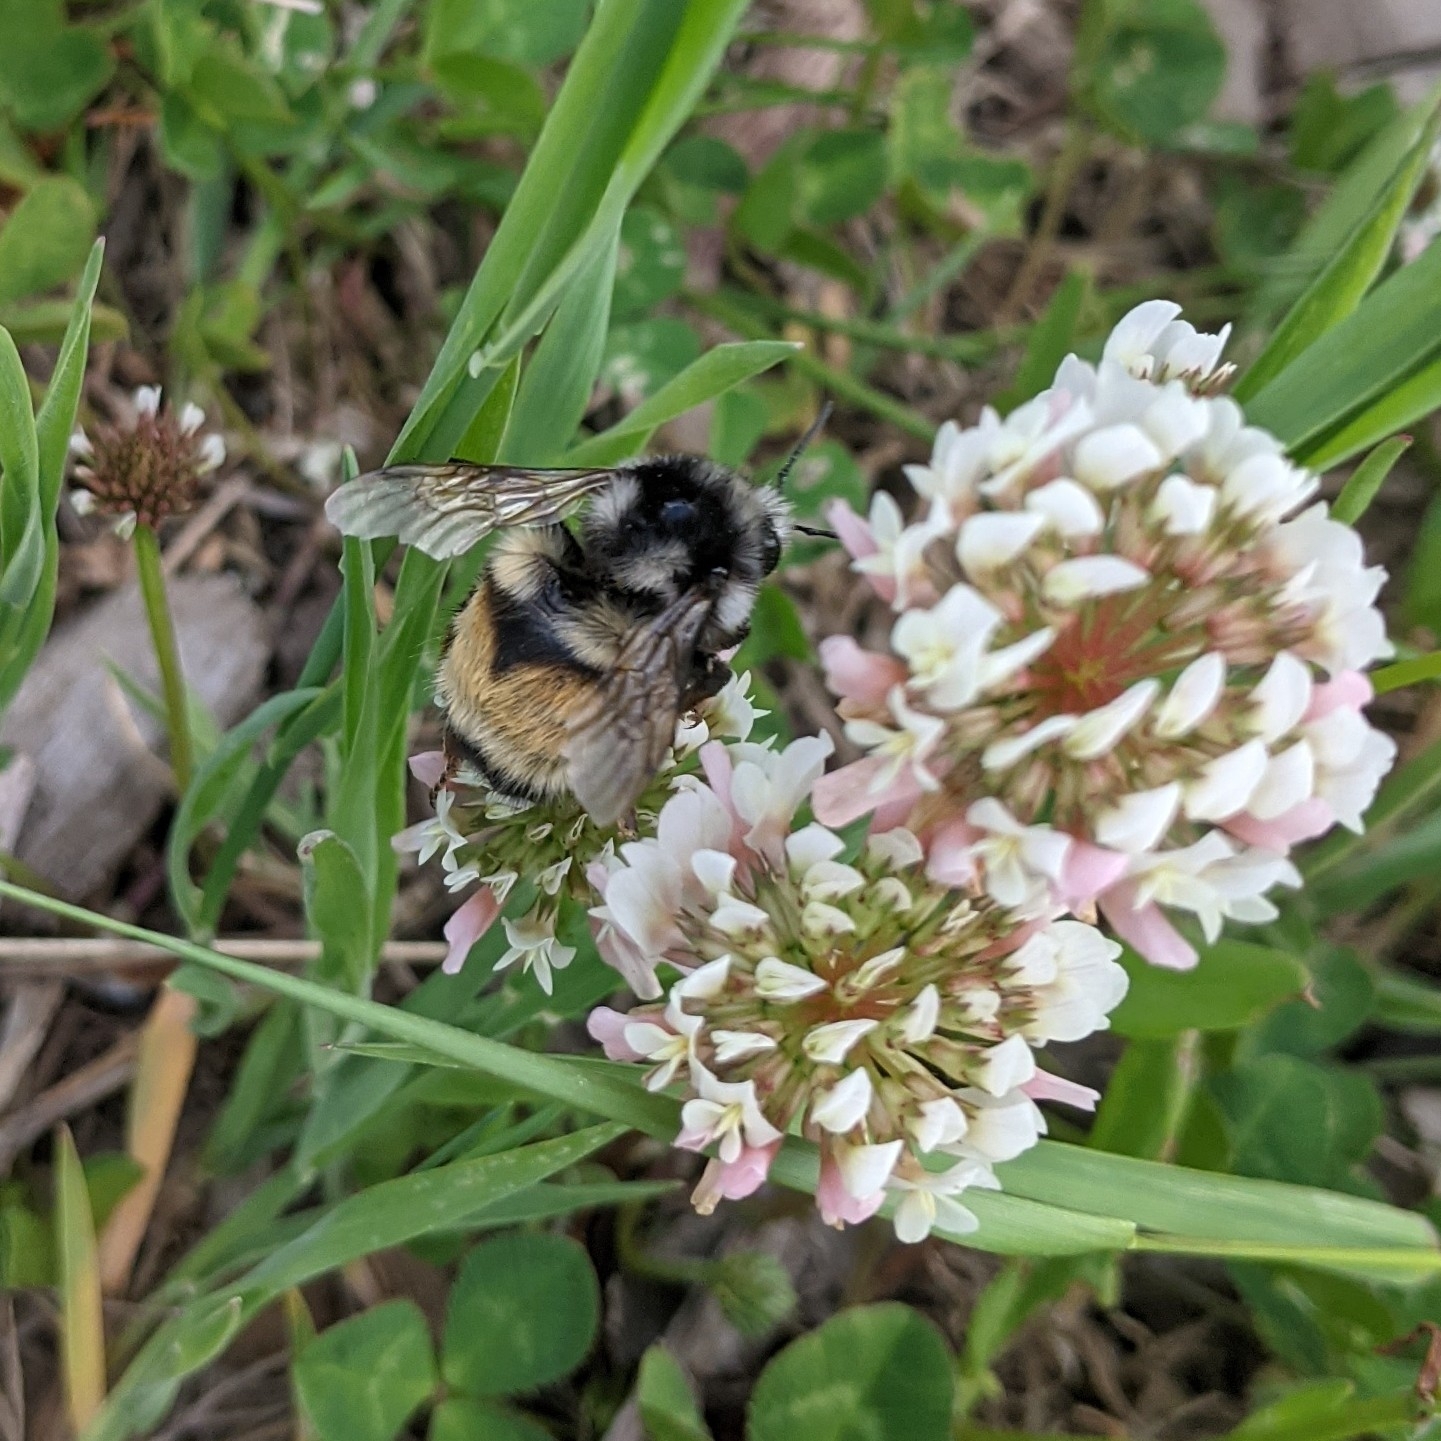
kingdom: Animalia
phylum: Arthropoda
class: Insecta
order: Hymenoptera
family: Apidae
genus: Bombus
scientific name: Bombus vancouverensis
